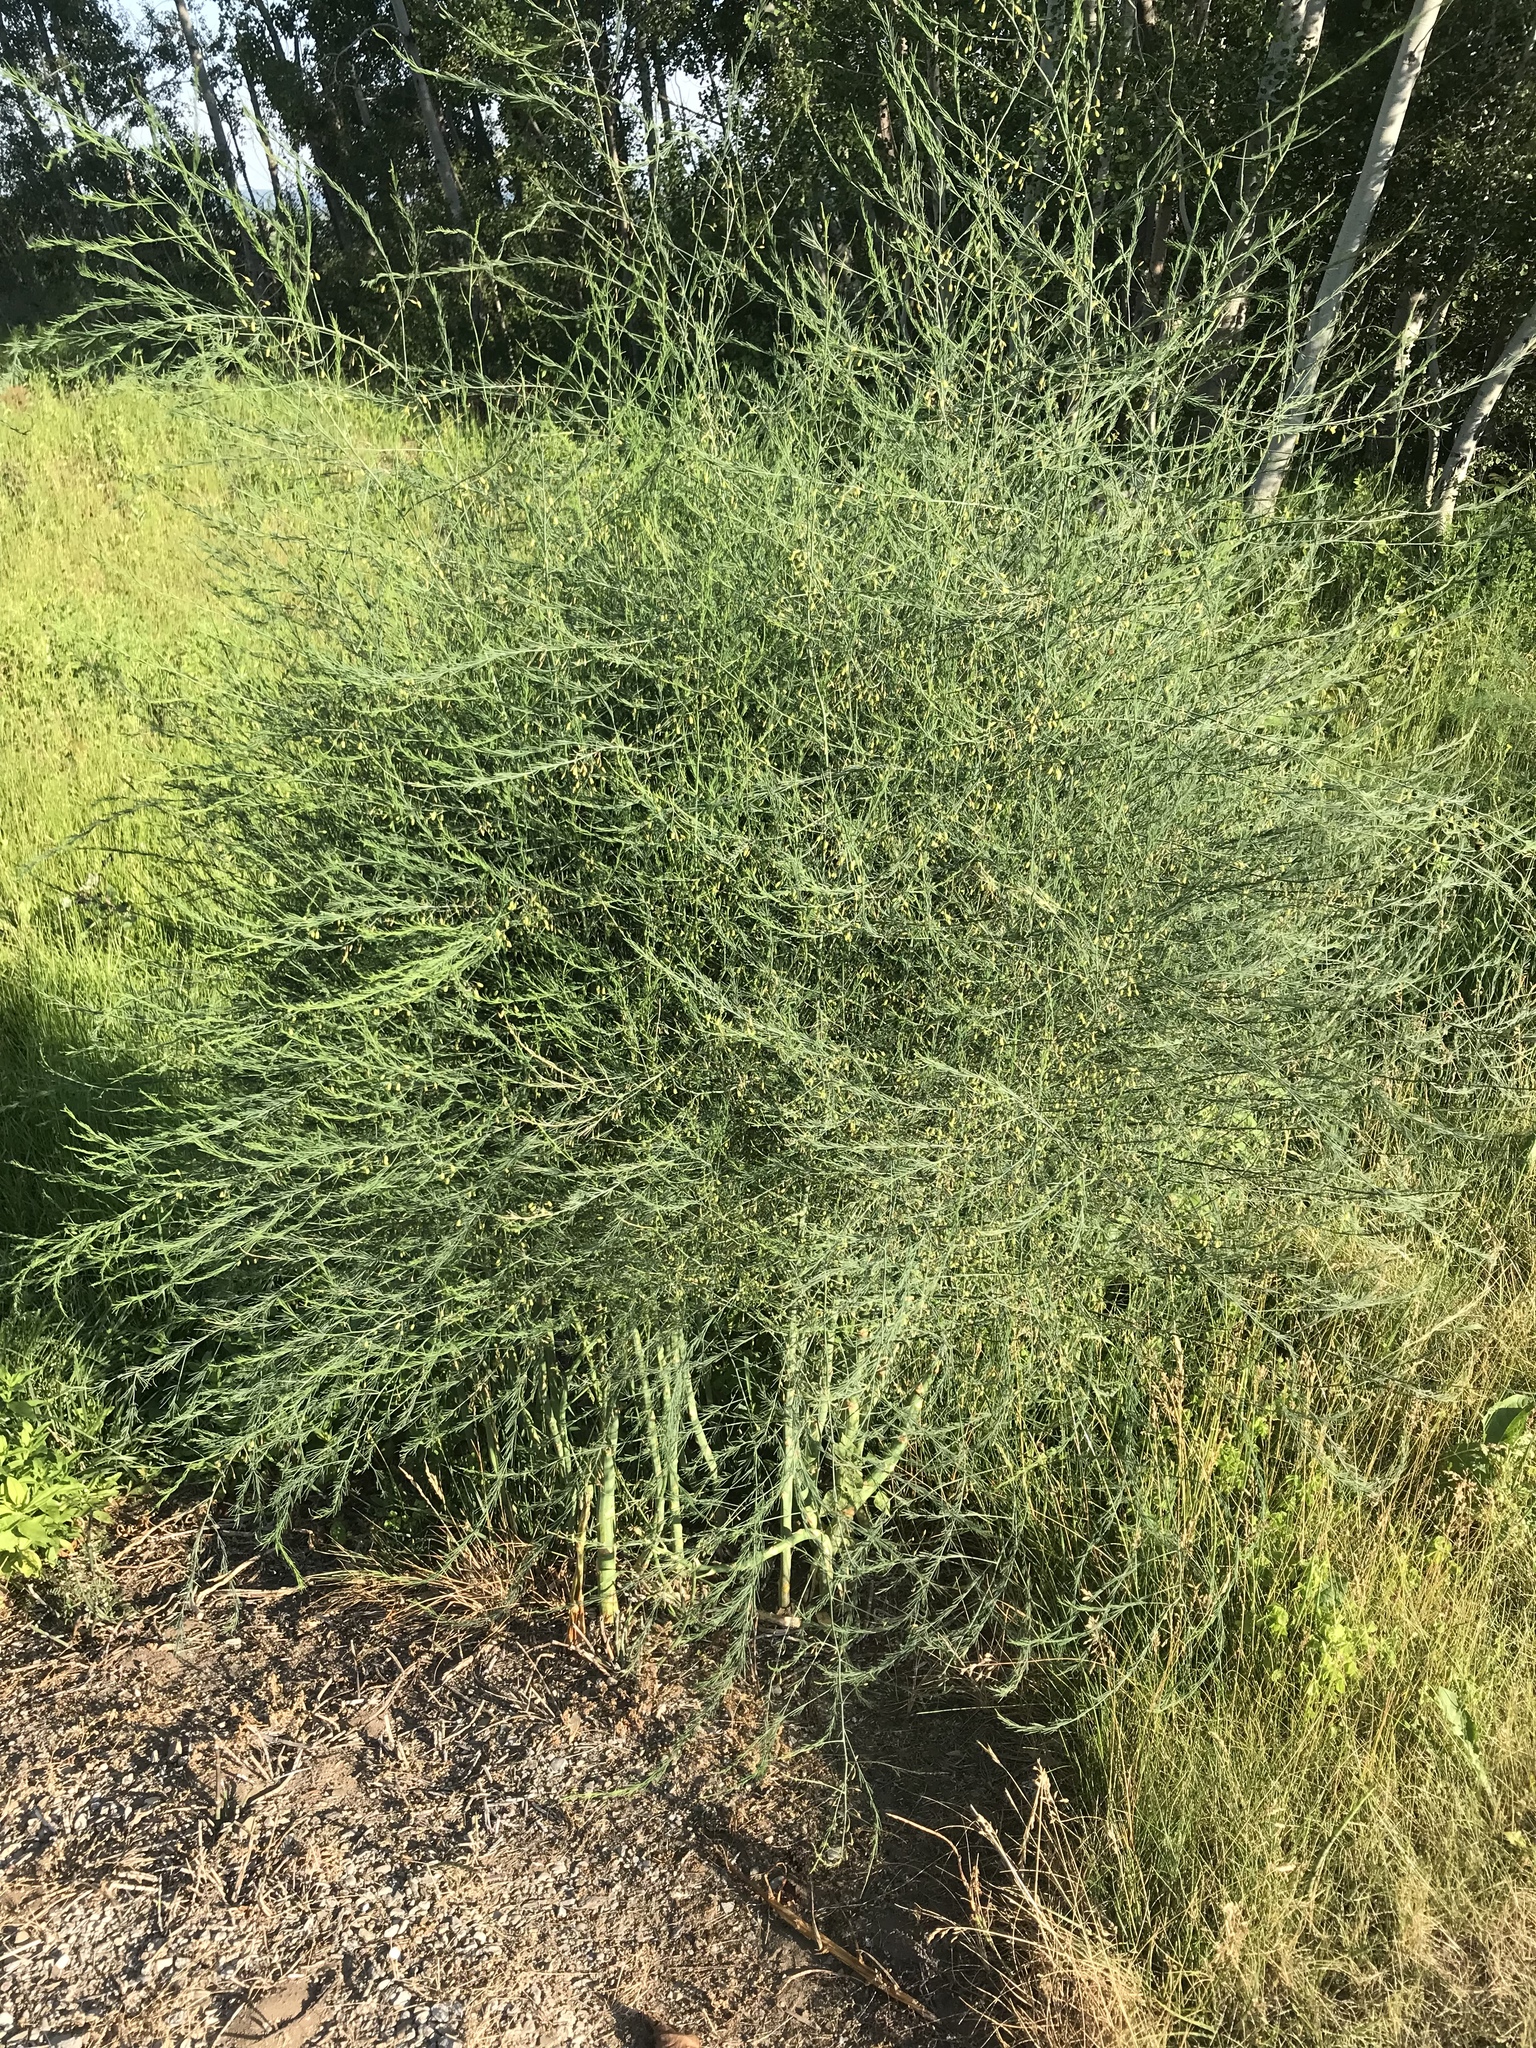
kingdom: Plantae
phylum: Tracheophyta
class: Liliopsida
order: Asparagales
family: Asparagaceae
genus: Asparagus
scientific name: Asparagus officinalis
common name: Garden asparagus
